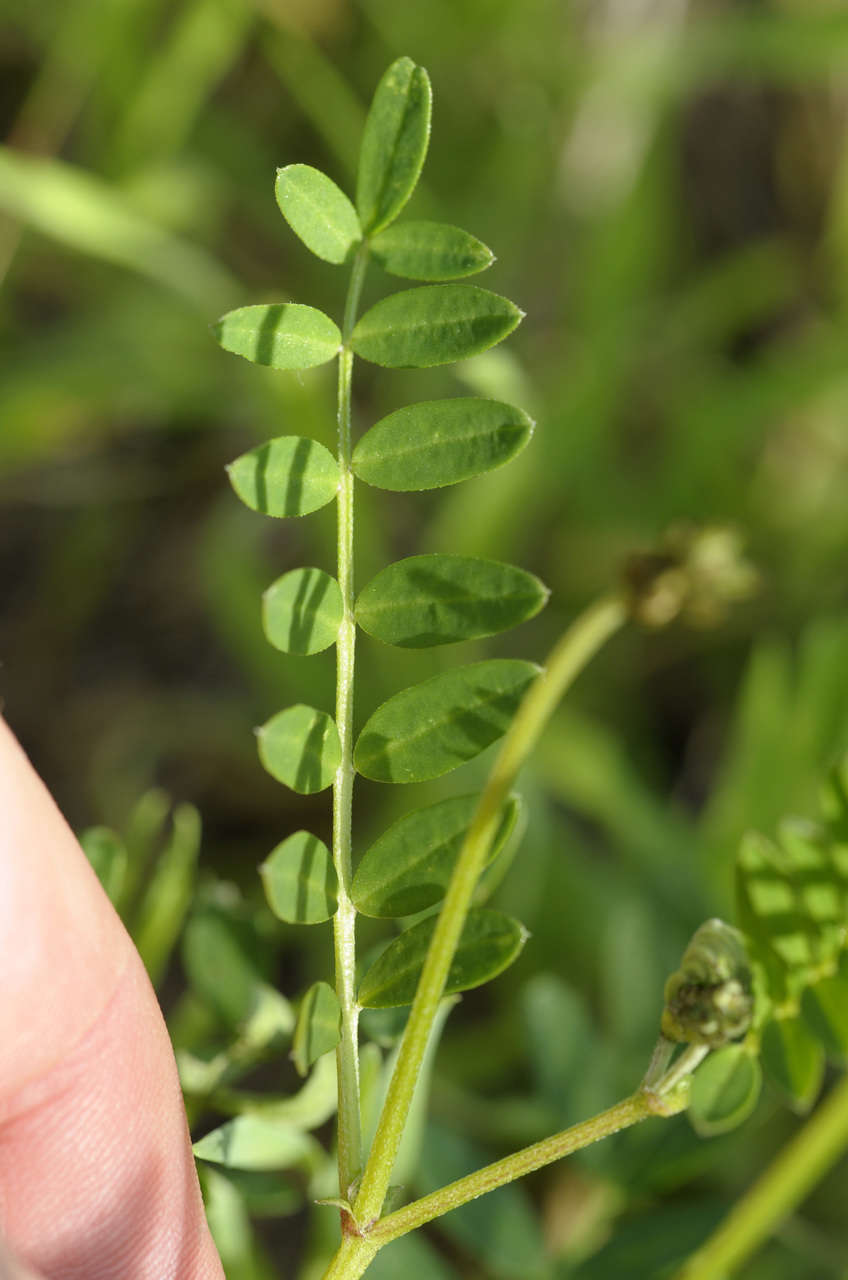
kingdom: Plantae
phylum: Tracheophyta
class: Magnoliopsida
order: Fabales
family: Fabaceae
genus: Swainsona
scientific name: Swainsona lessertiifolia
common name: Bog-pea
